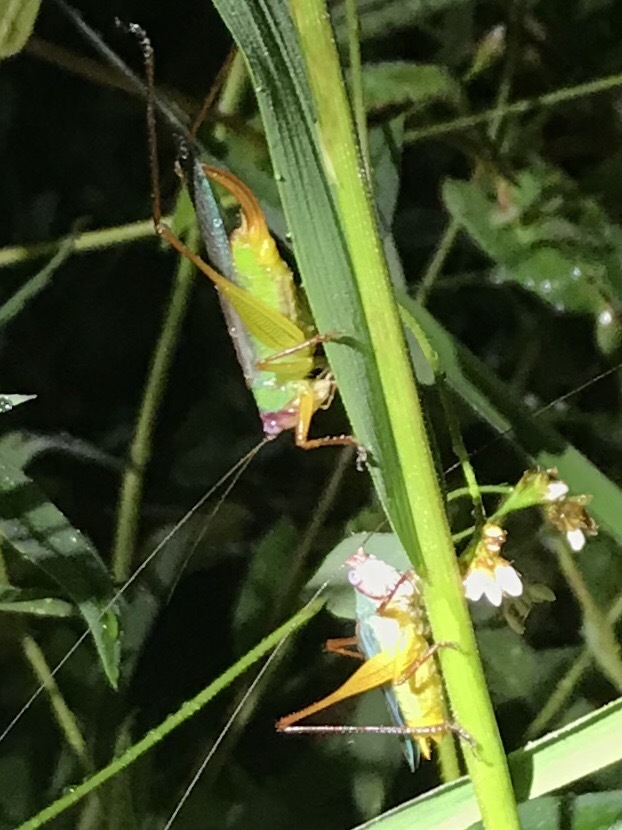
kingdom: Animalia
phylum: Arthropoda
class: Insecta
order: Orthoptera
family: Tettigoniidae
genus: Orchelimum
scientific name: Orchelimum pulchellum
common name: Handsome meadow katydid
